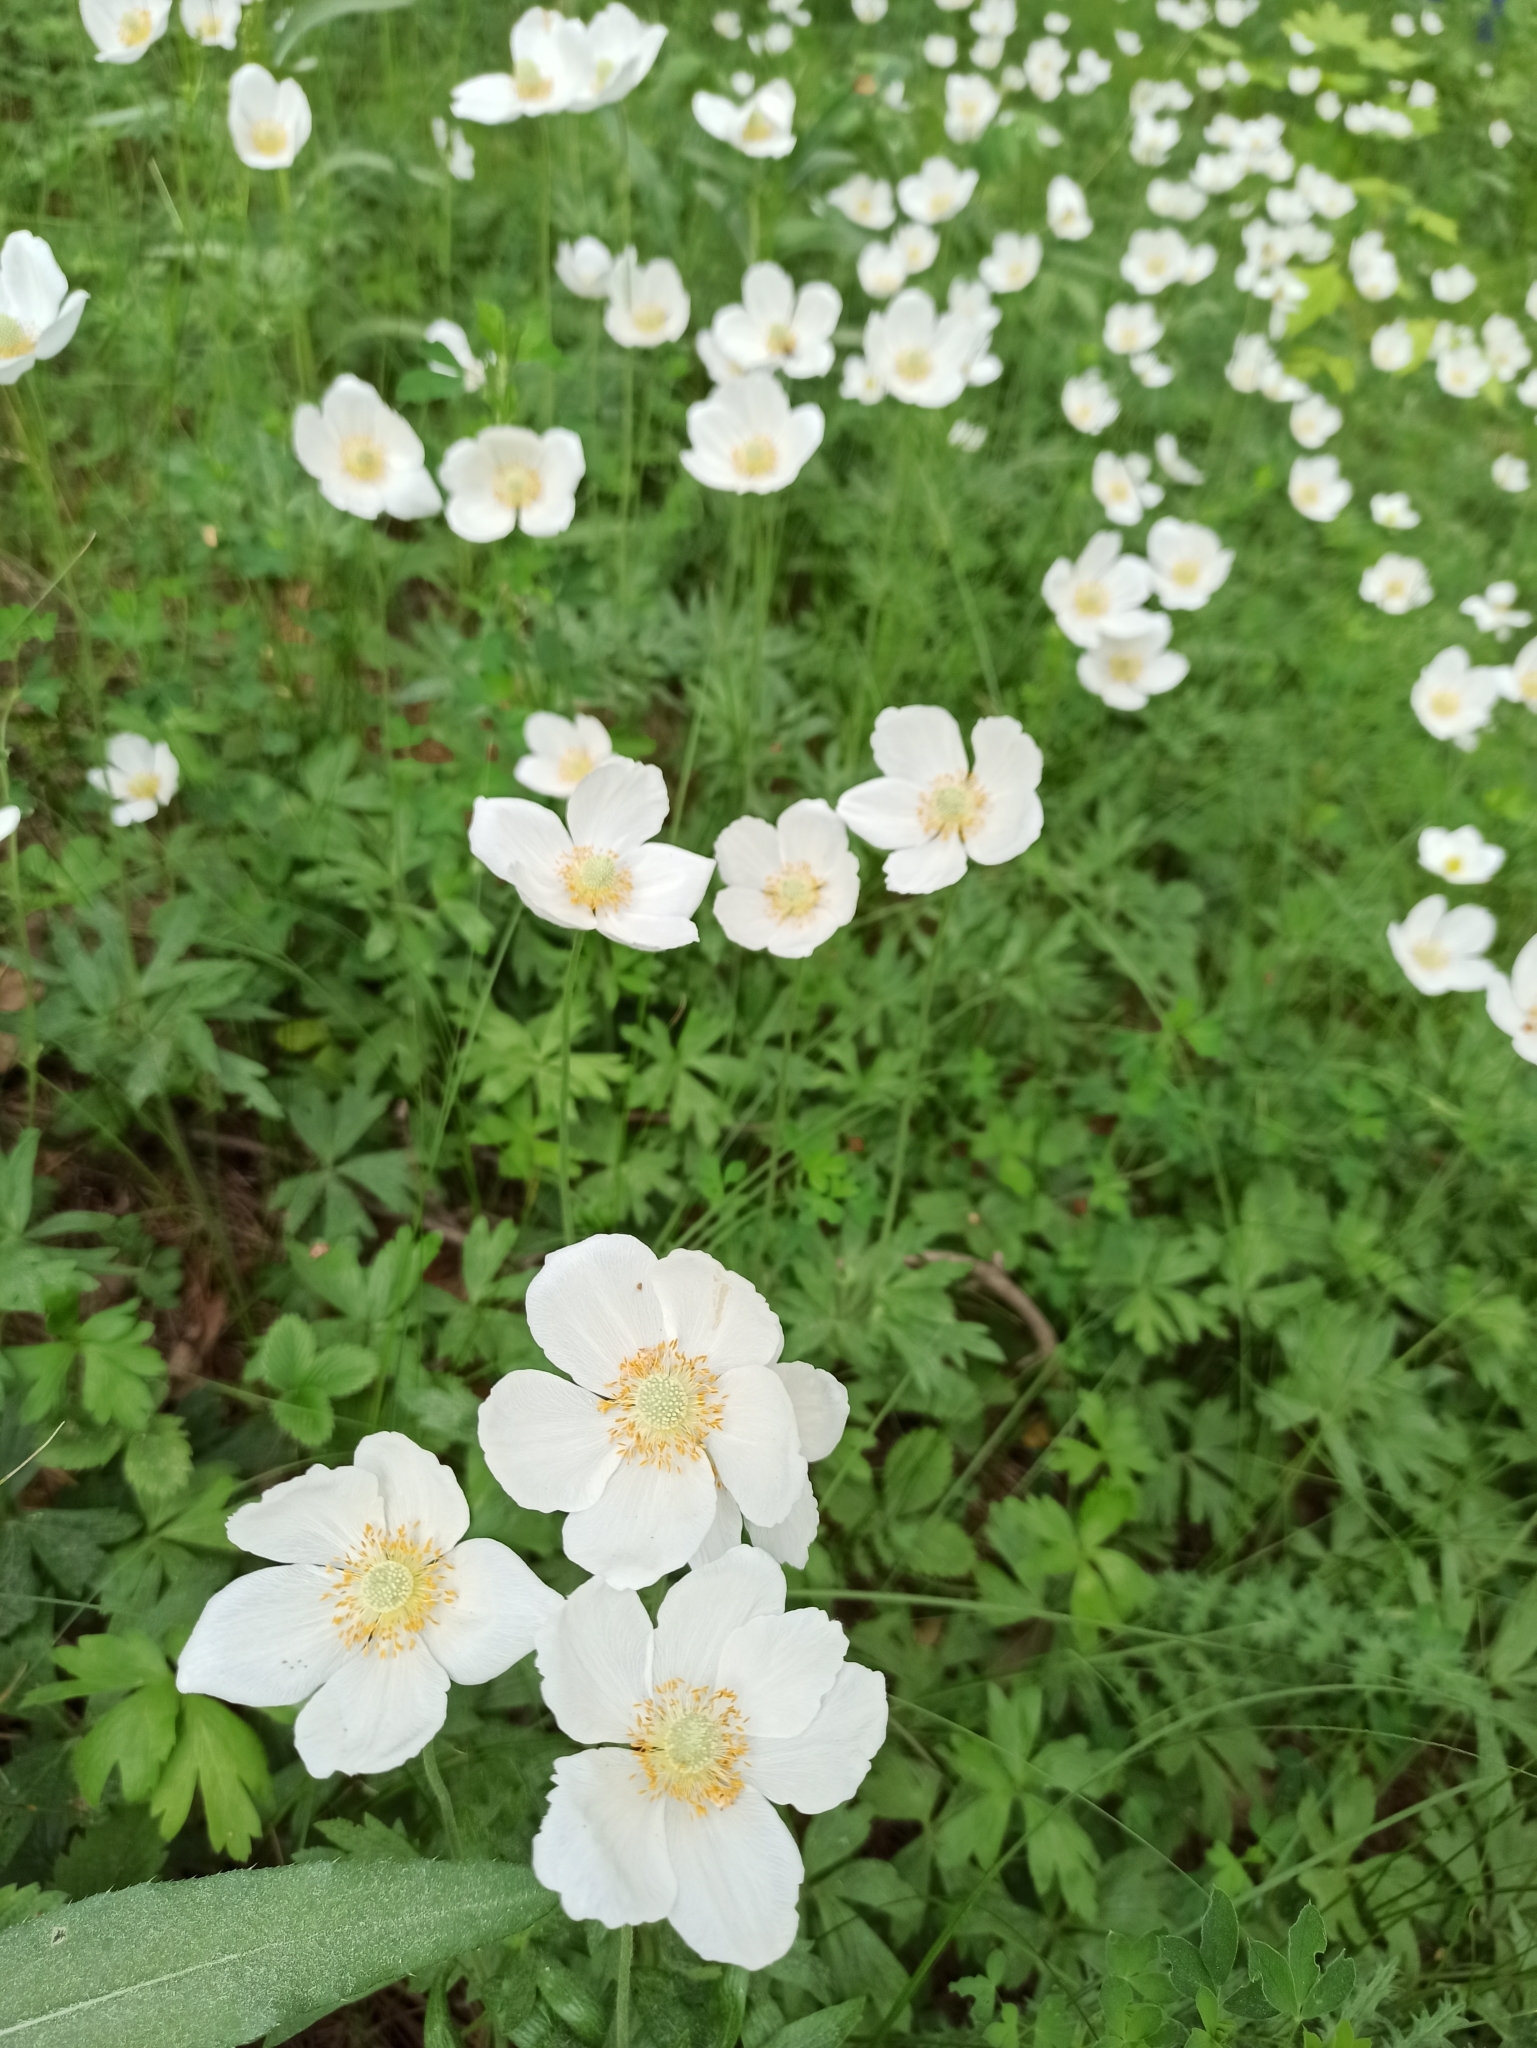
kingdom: Plantae
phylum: Tracheophyta
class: Magnoliopsida
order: Ranunculales
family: Ranunculaceae
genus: Anemone
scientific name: Anemone sylvestris
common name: Snowdrop anemone
